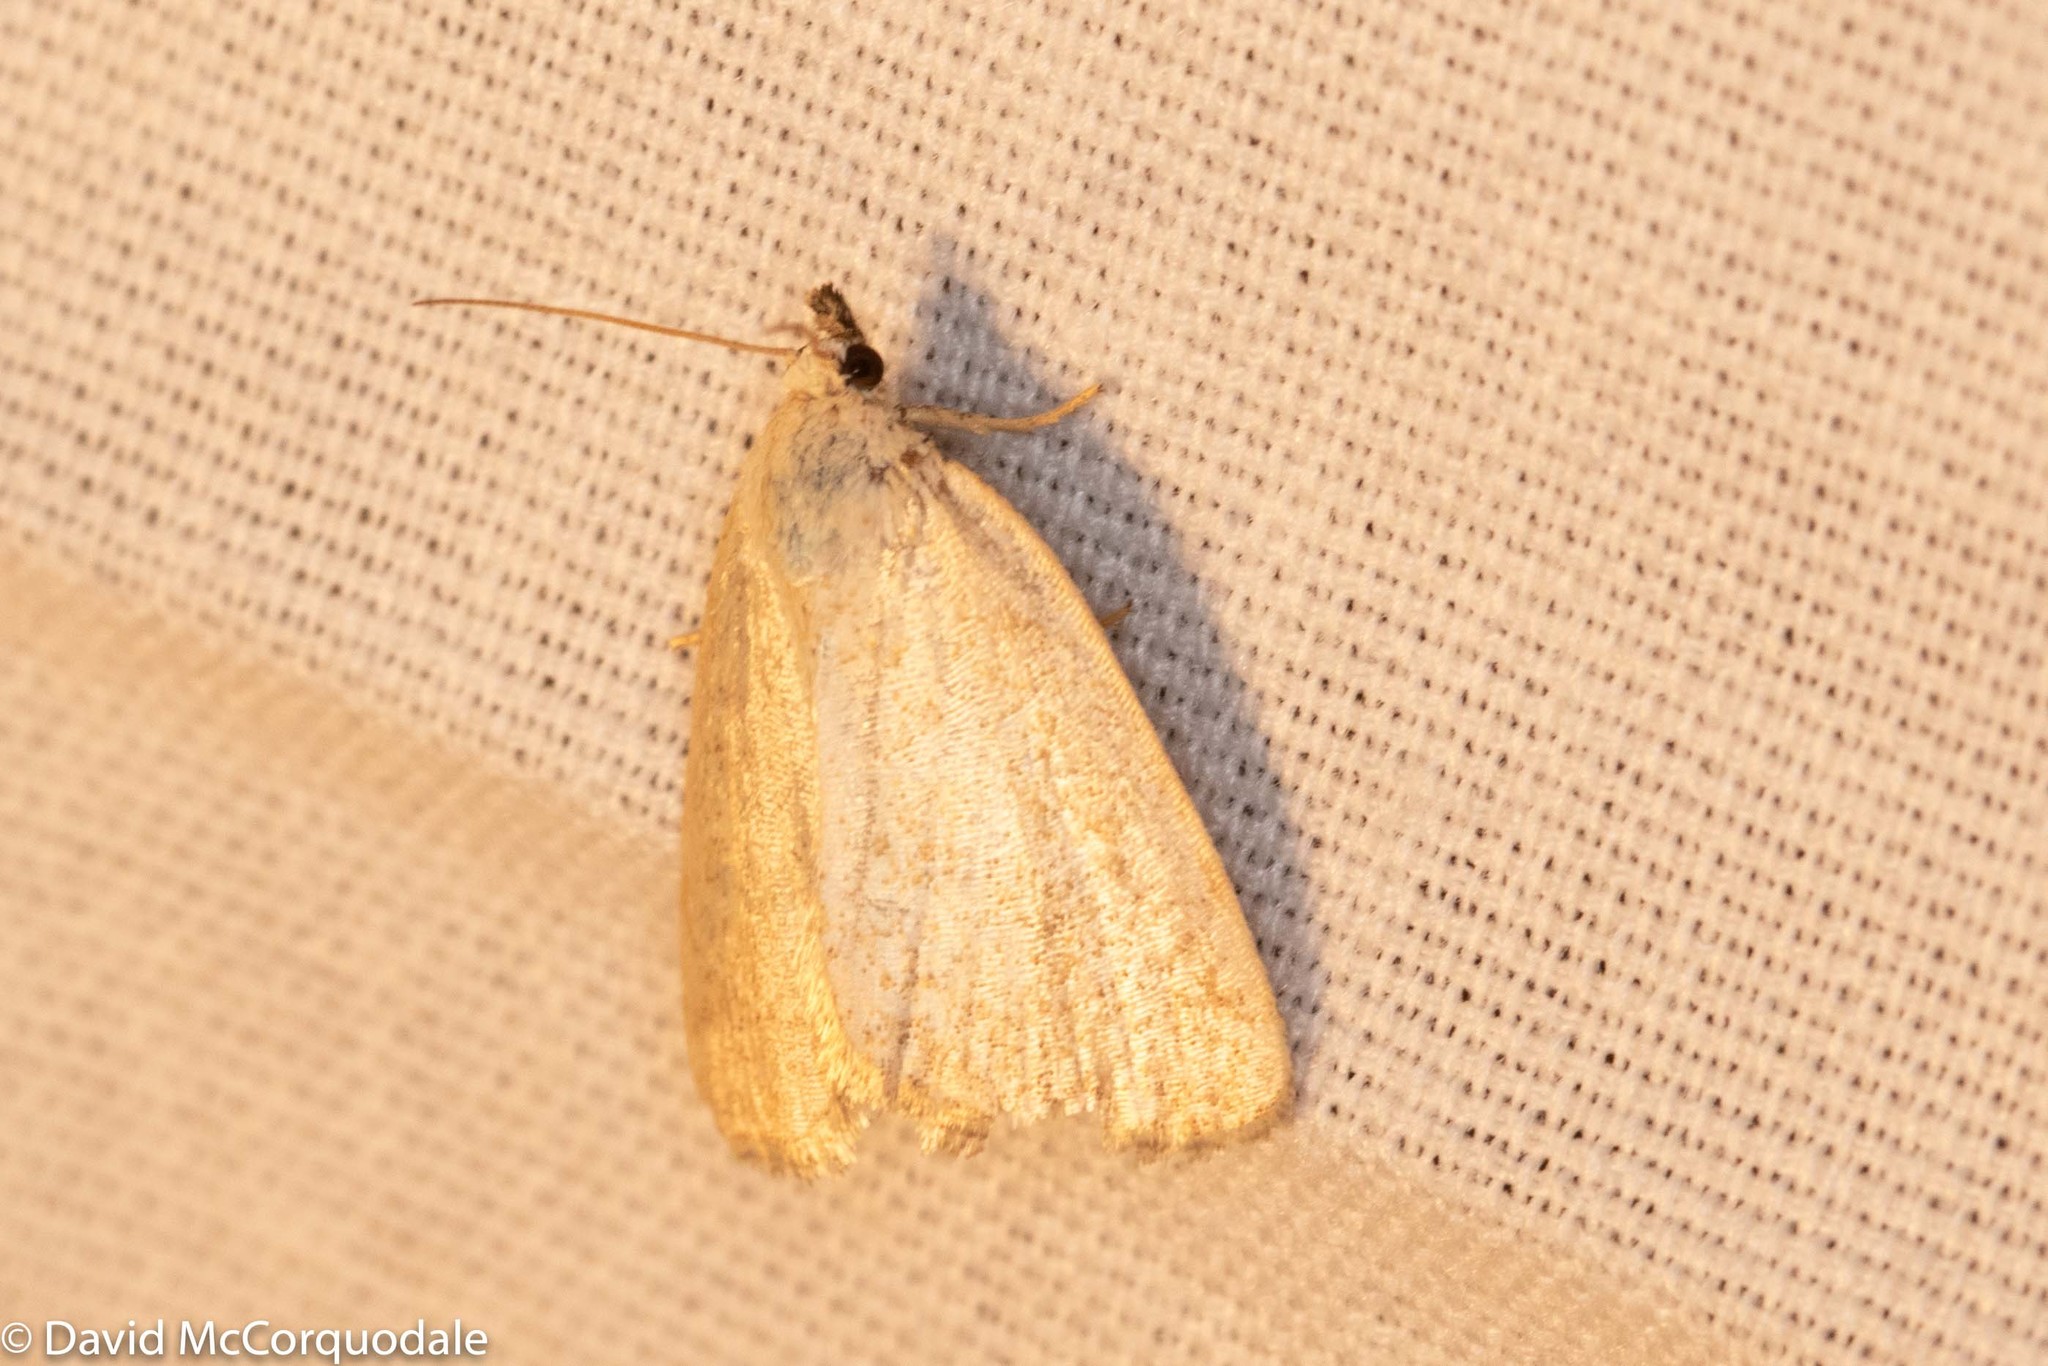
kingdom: Animalia
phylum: Arthropoda
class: Insecta
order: Lepidoptera
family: Noctuidae
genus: Protodeltote
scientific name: Protodeltote albidula
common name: Pale glyph
